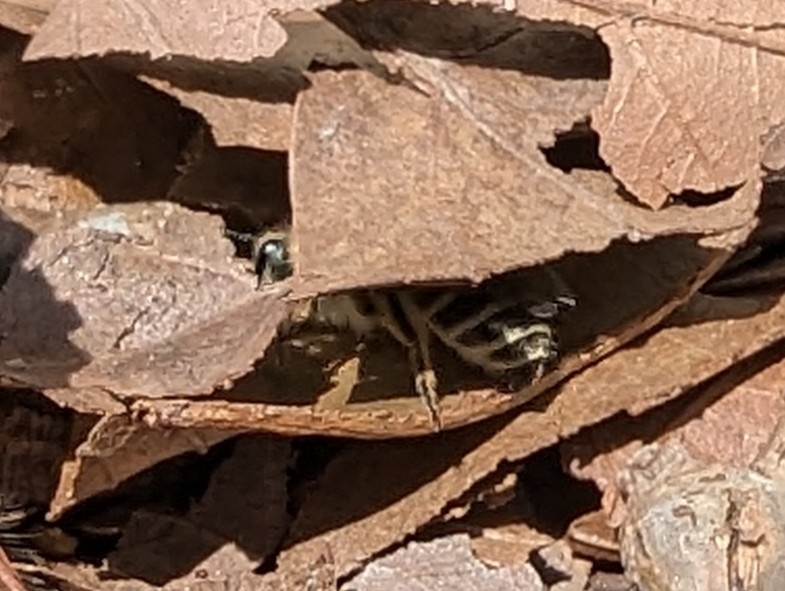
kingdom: Animalia
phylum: Arthropoda
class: Insecta
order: Hymenoptera
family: Colletidae
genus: Colletes
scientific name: Colletes inaequalis
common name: Unequal cellophane bee
